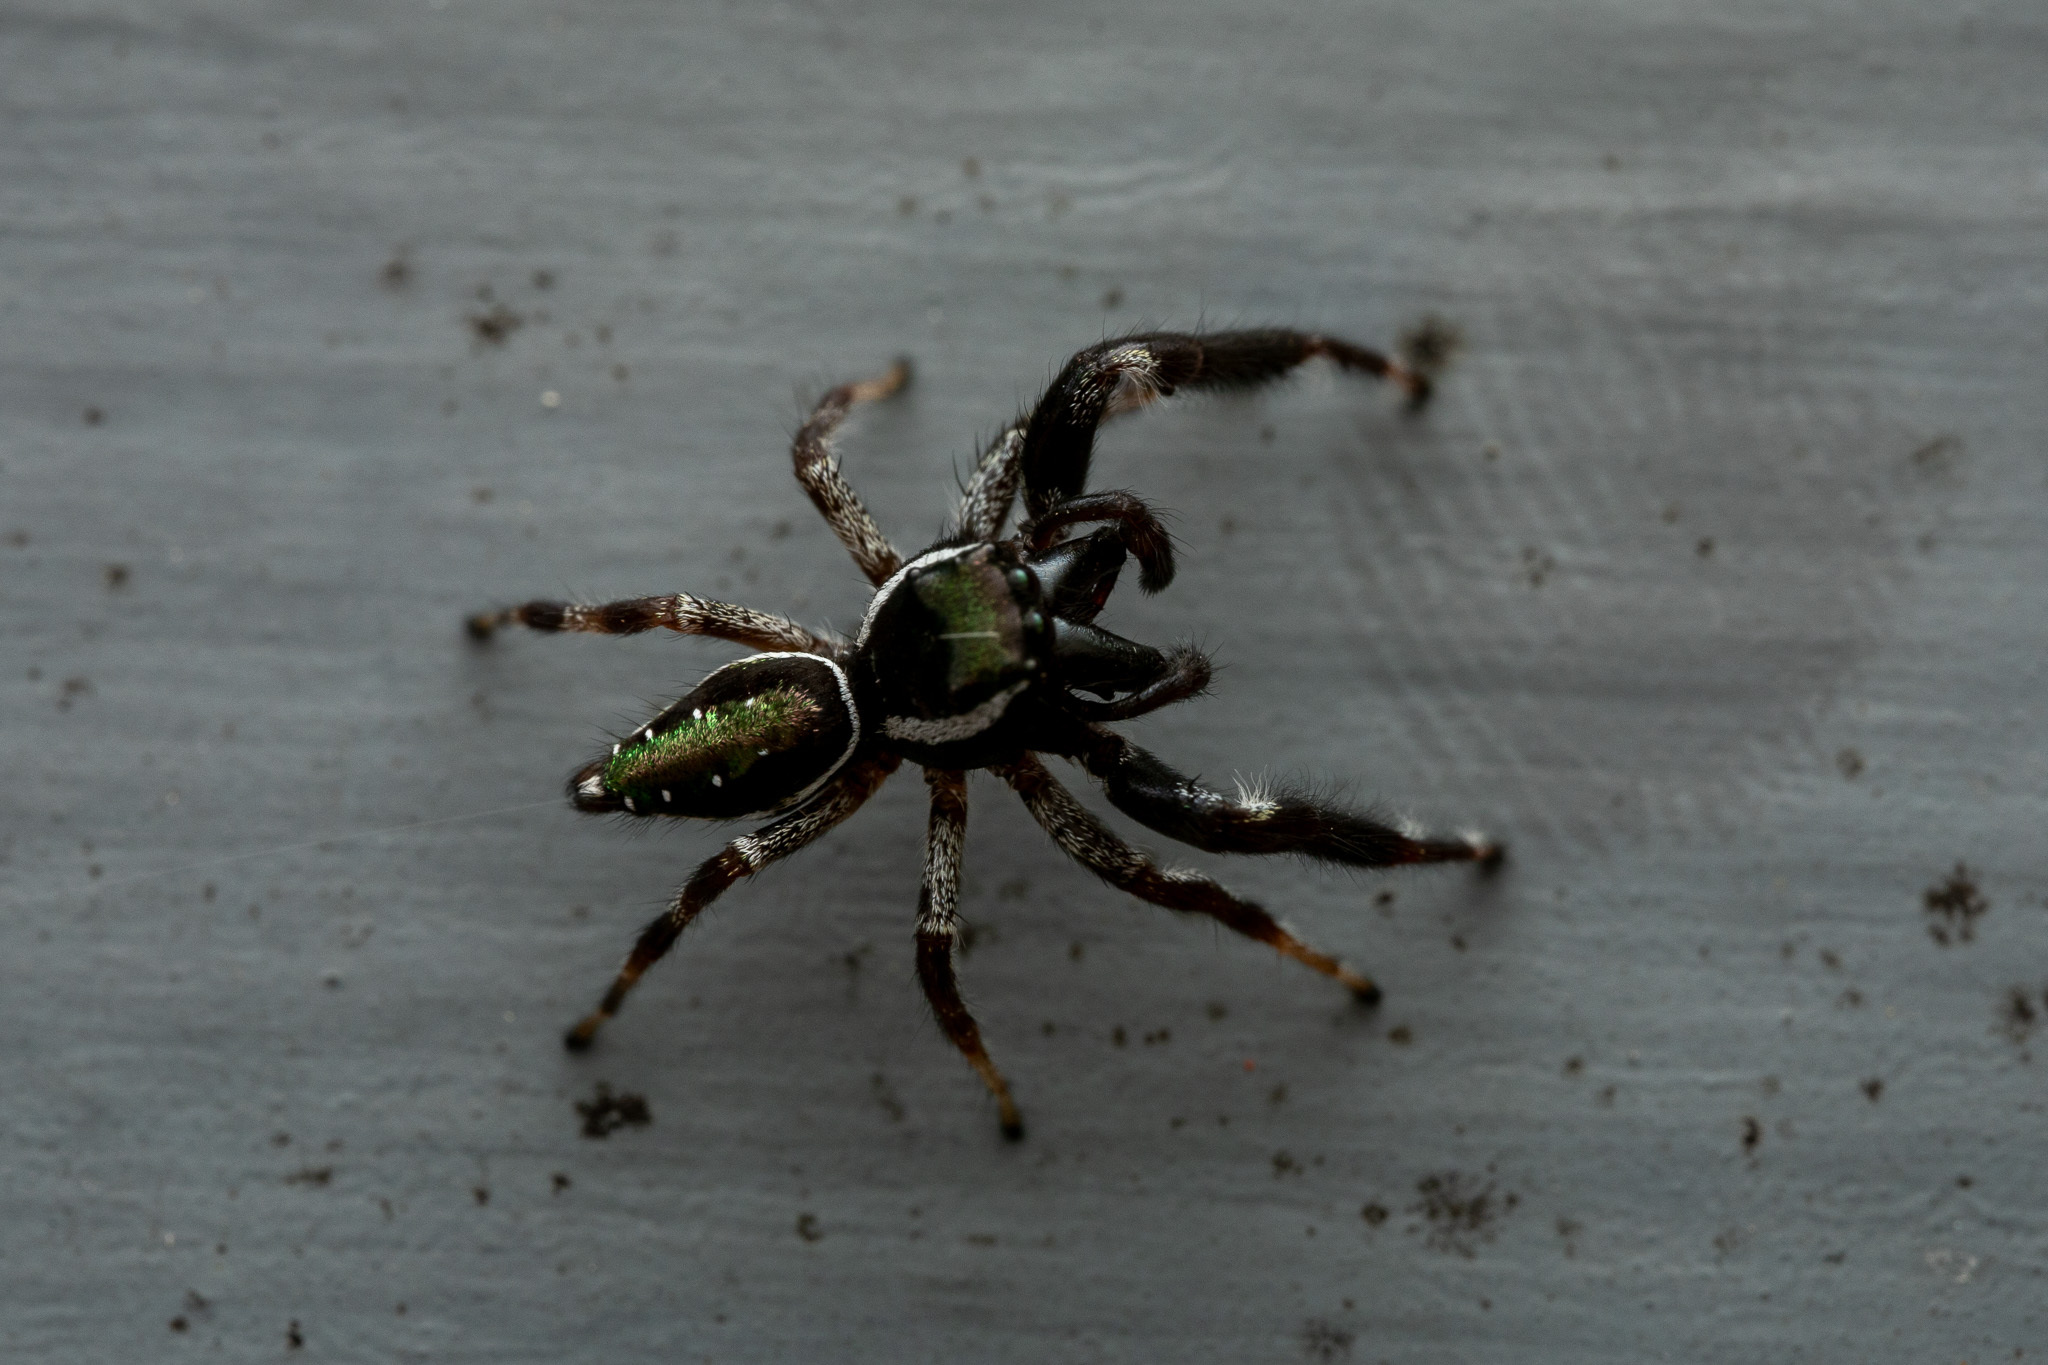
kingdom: Animalia
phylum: Arthropoda
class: Arachnida
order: Araneae
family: Salticidae
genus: Paraphidippus
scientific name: Paraphidippus aurantius
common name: Jumping spiders
